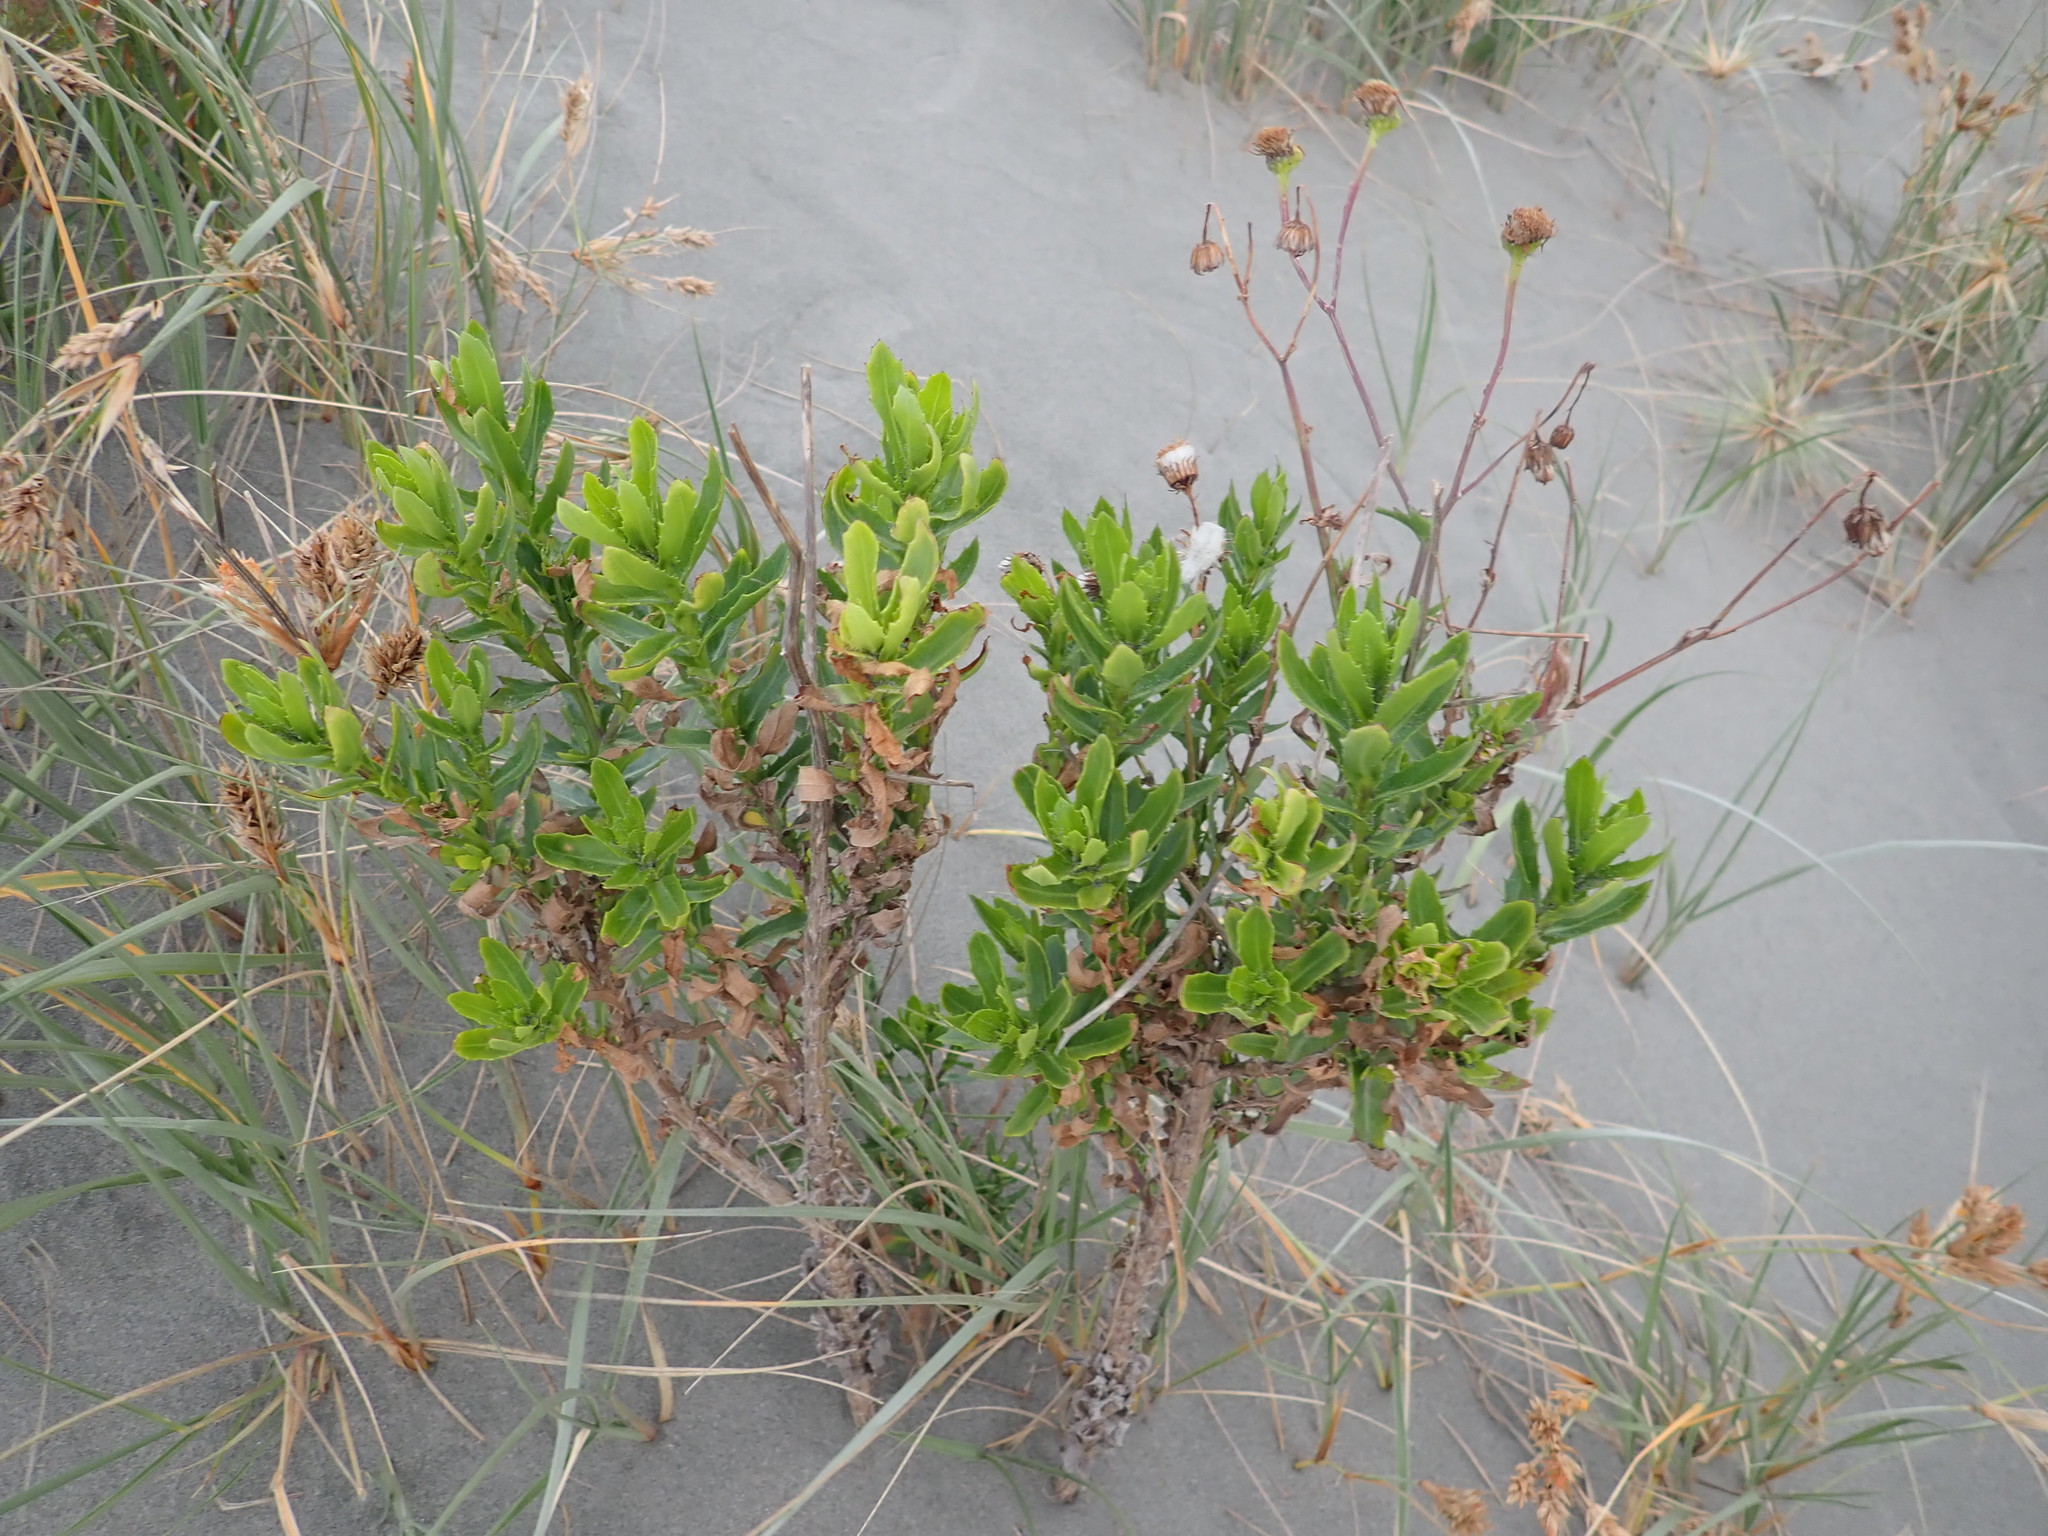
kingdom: Plantae
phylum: Tracheophyta
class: Magnoliopsida
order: Asterales
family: Asteraceae
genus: Senecio
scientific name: Senecio glastifolius
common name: Woad-leaved ragwort
